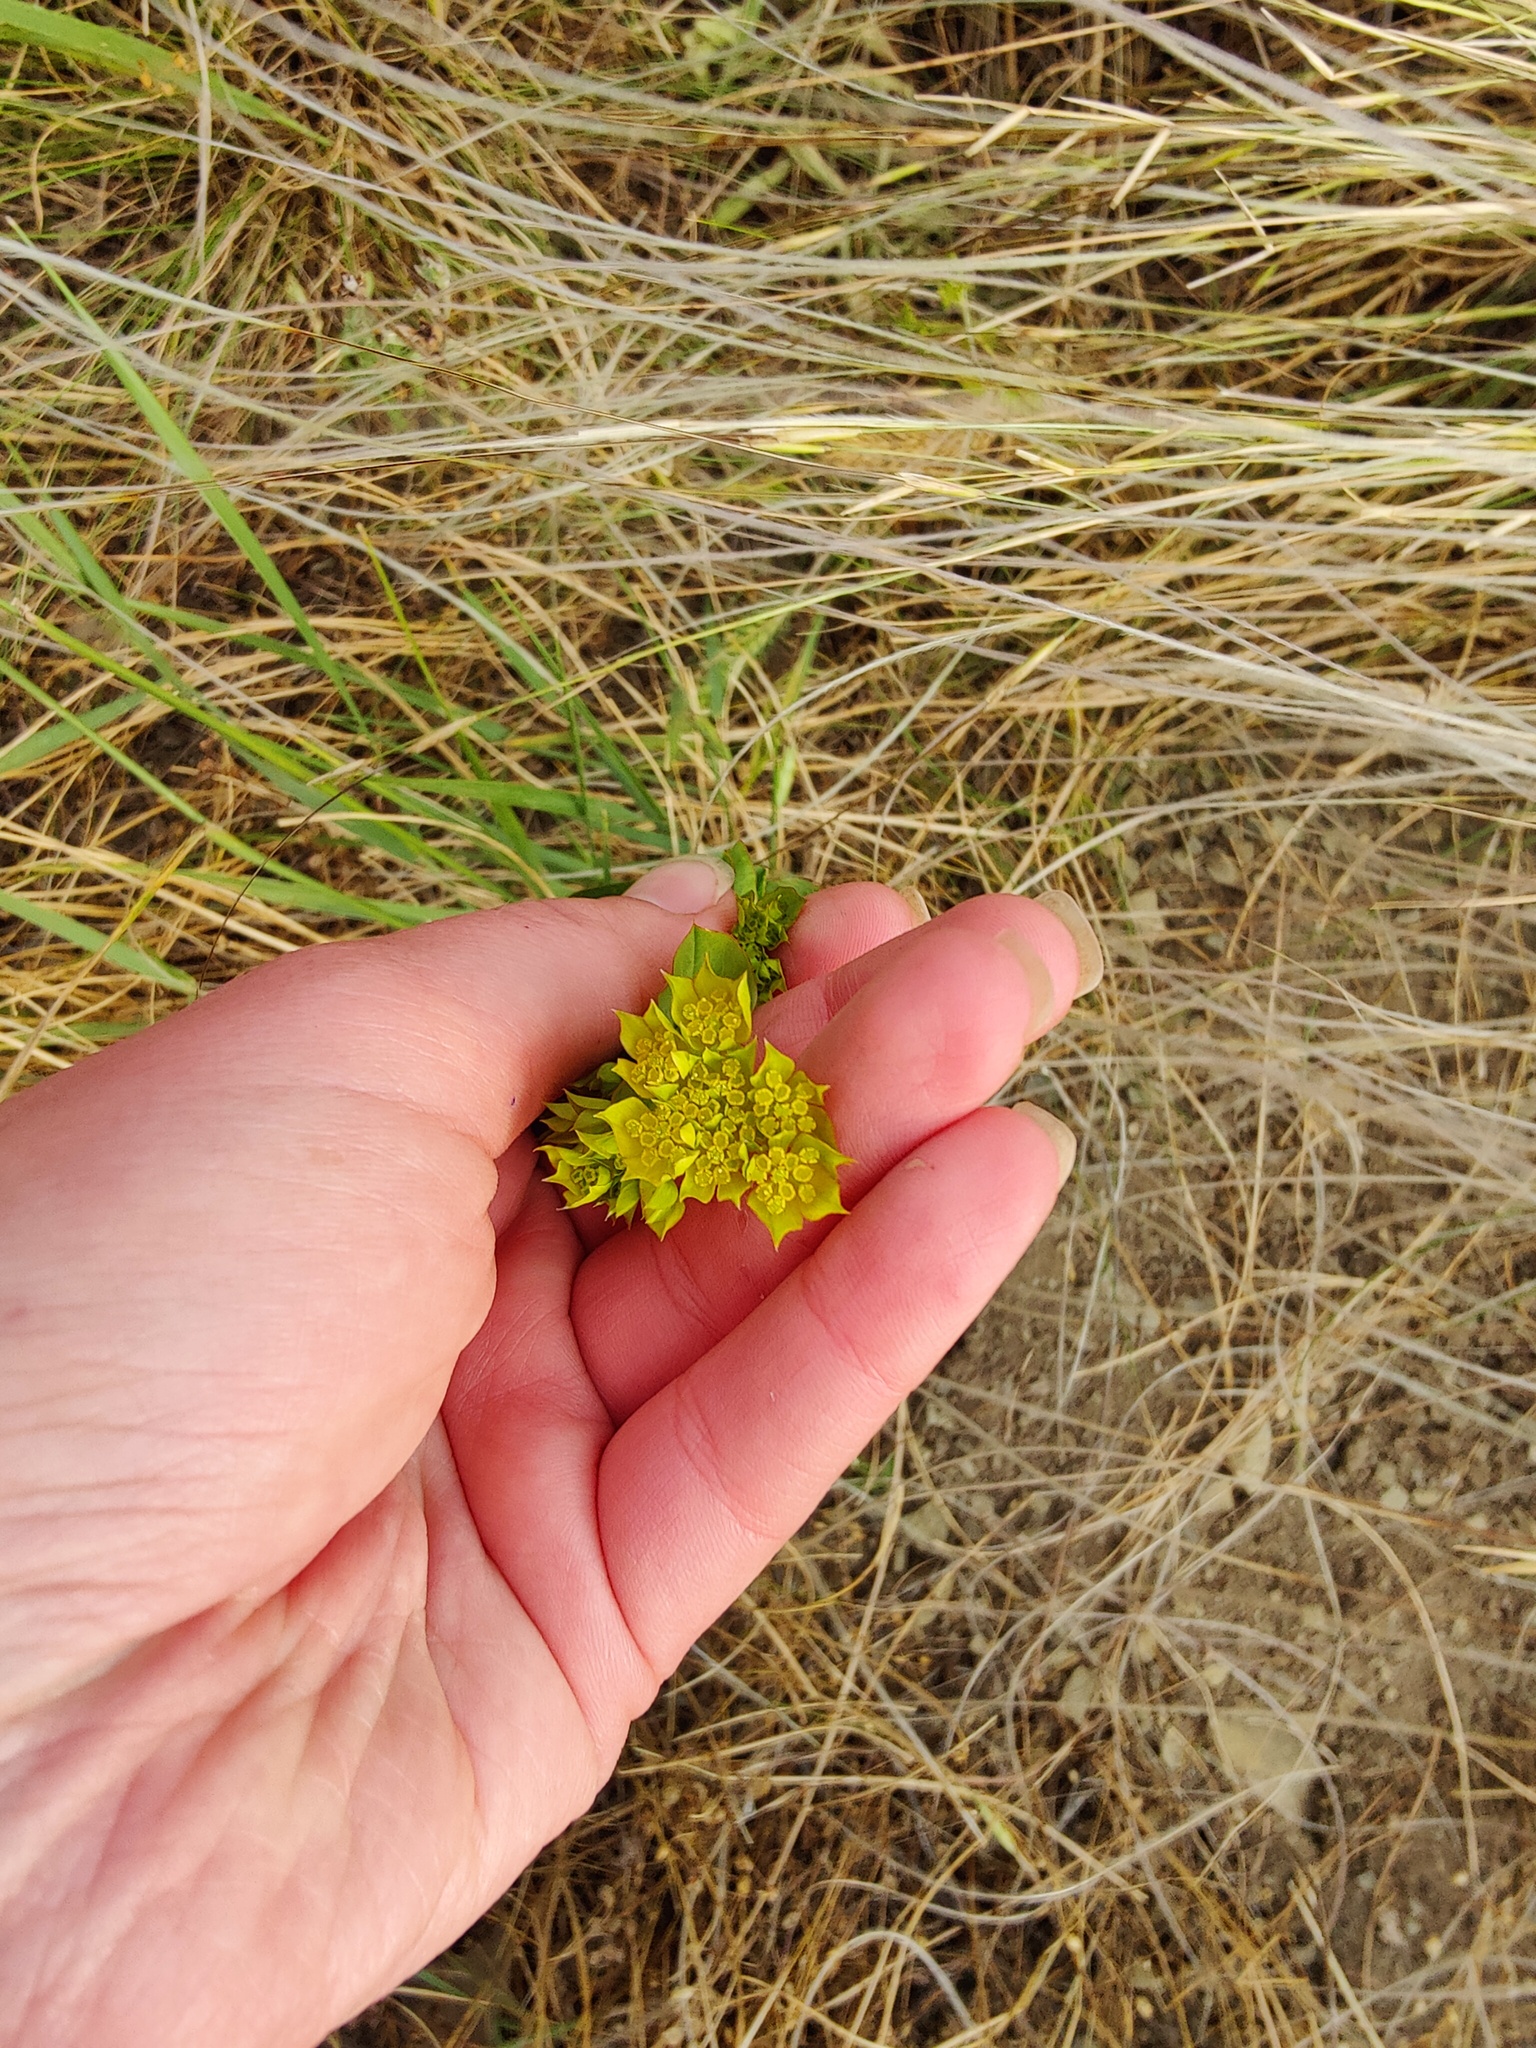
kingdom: Plantae
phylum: Tracheophyta
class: Magnoliopsida
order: Apiales
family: Apiaceae
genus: Bupleurum
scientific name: Bupleurum rotundifolium
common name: Thorow-wax
